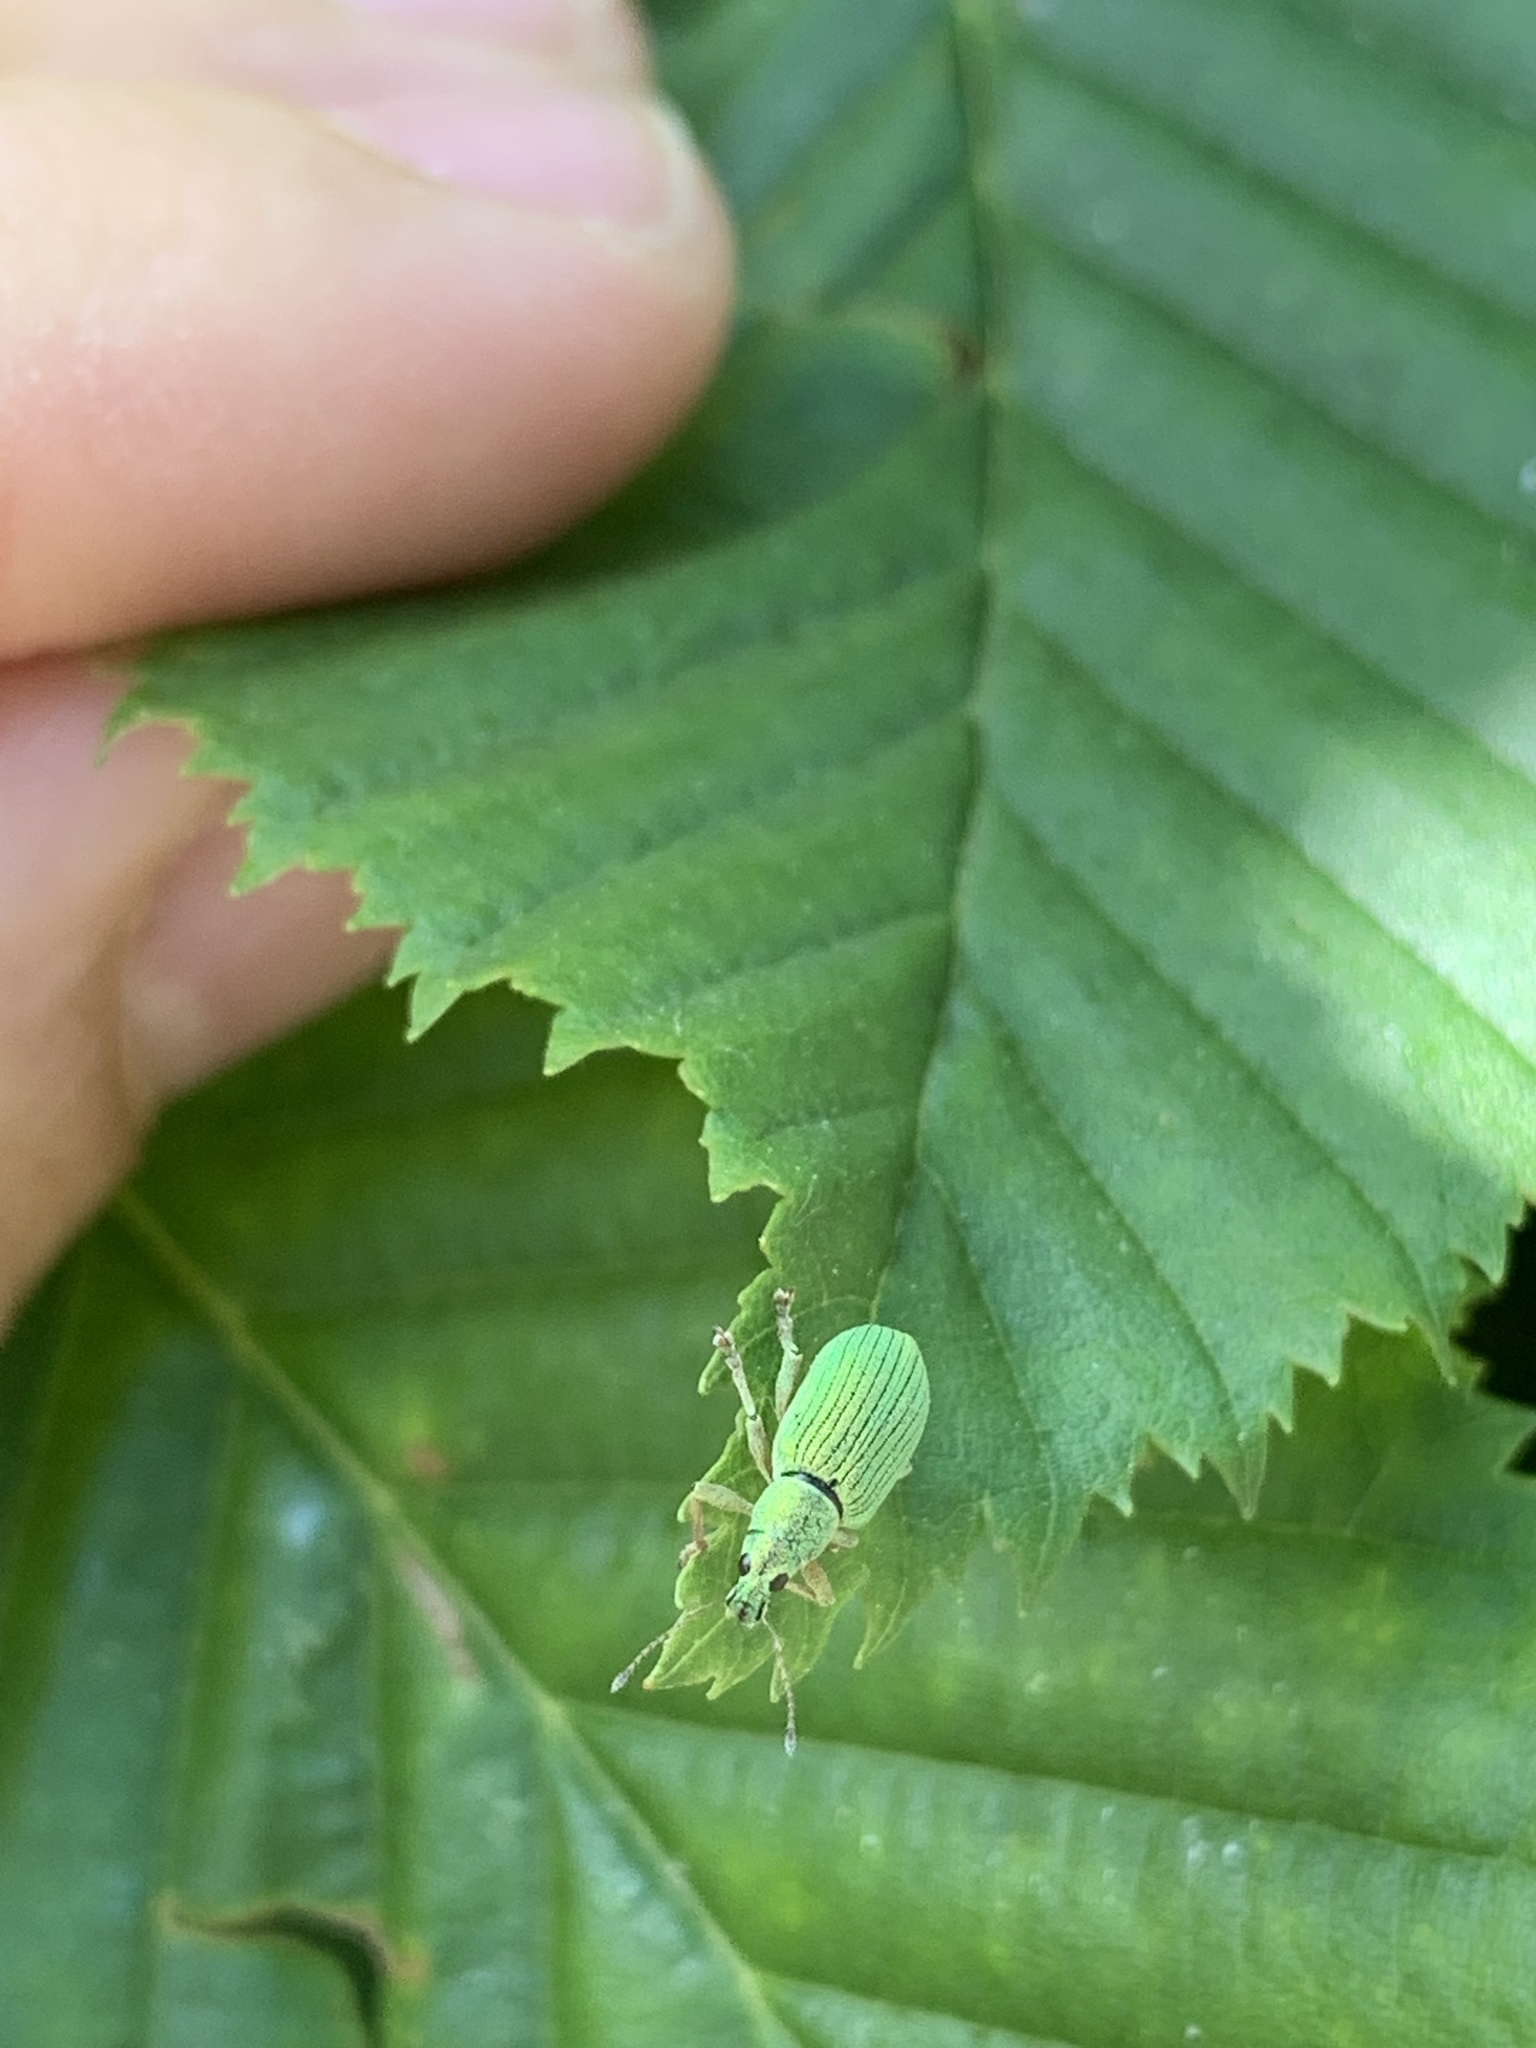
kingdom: Animalia
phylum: Arthropoda
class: Insecta
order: Coleoptera
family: Curculionidae
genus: Polydrusus
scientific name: Polydrusus formosus
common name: Weevil
